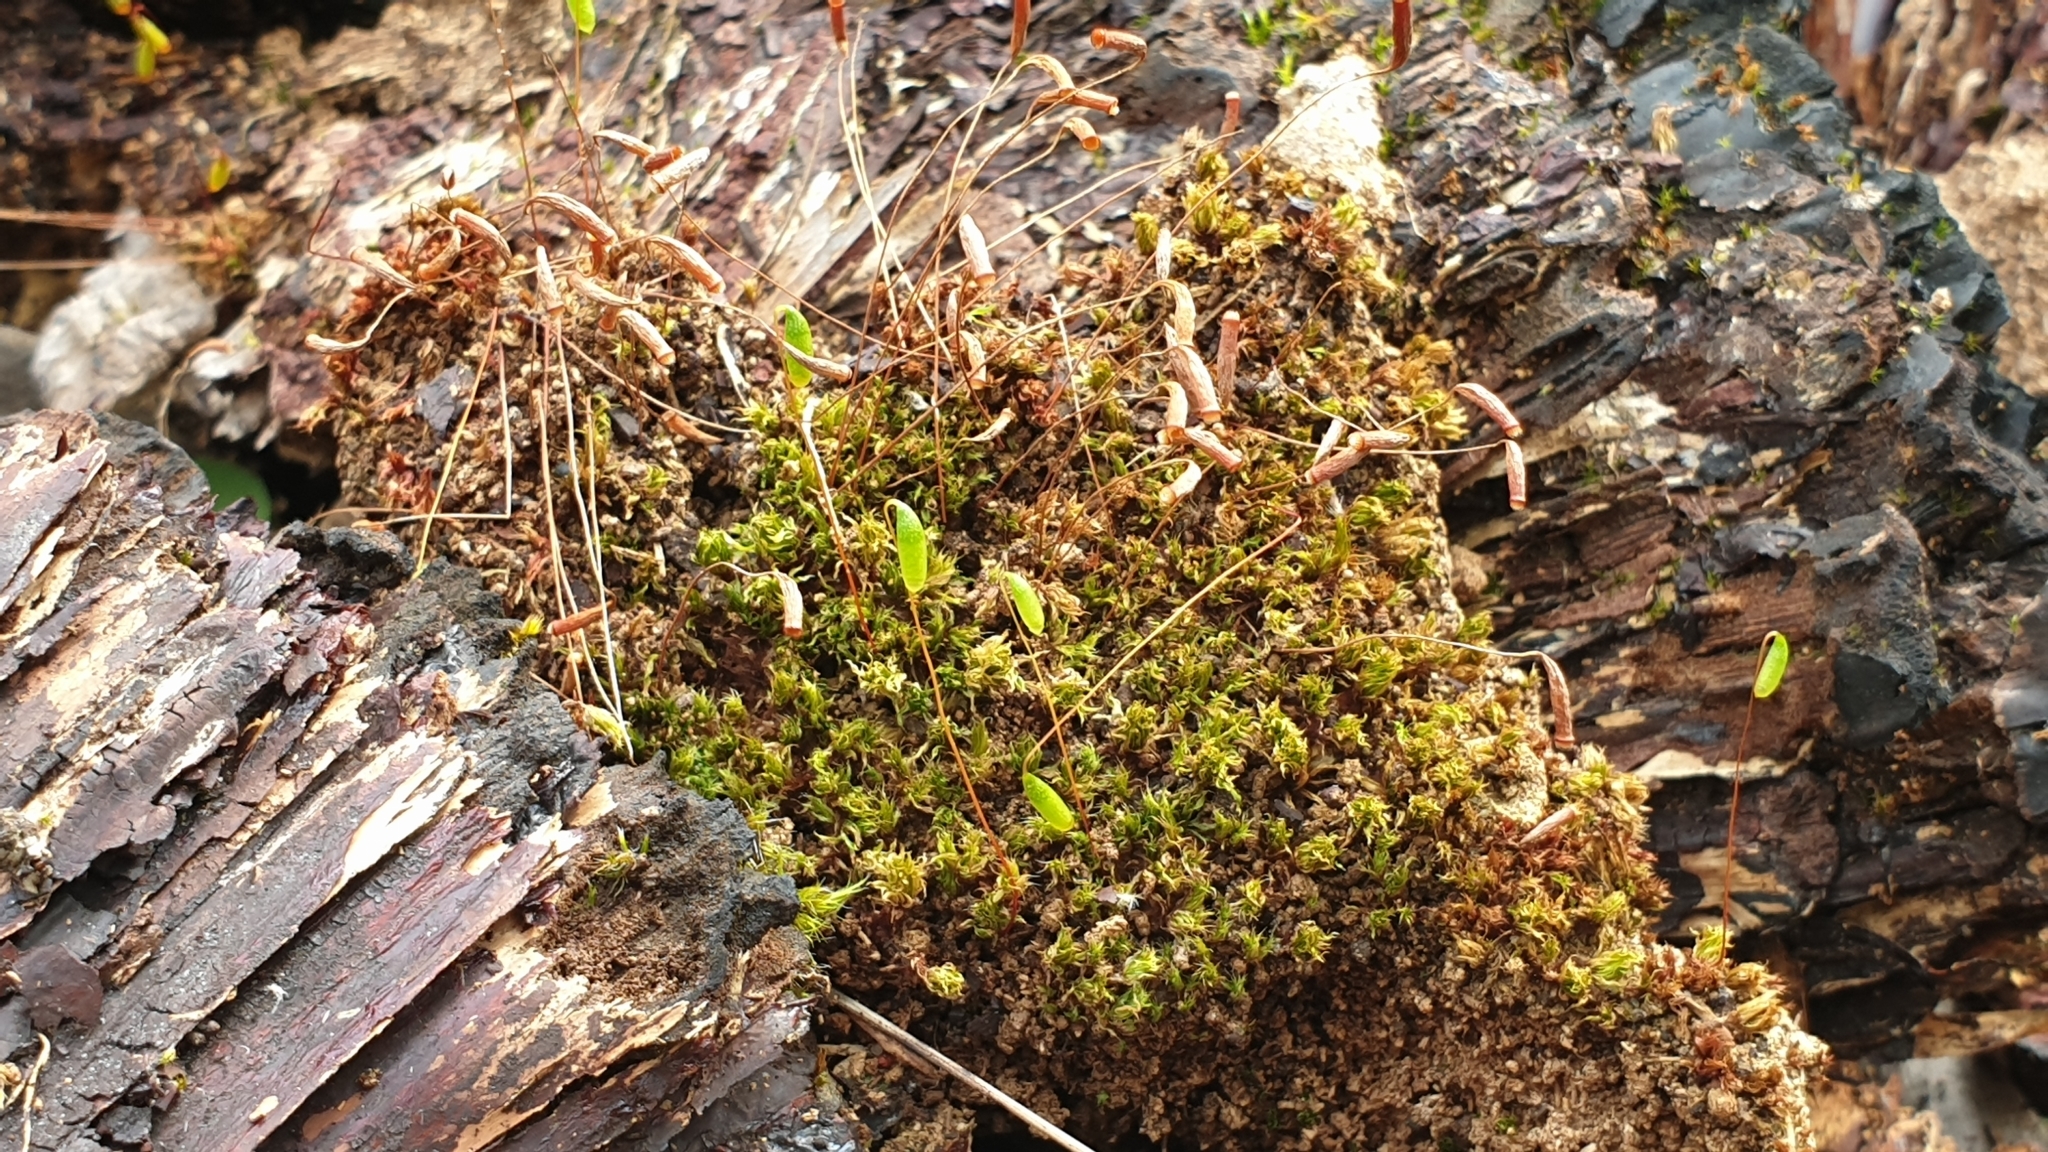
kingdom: Plantae
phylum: Bryophyta
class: Bryopsida
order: Bryales
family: Bryaceae
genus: Rosulabryum
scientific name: Rosulabryum capillare
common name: Capillary thread-moss
